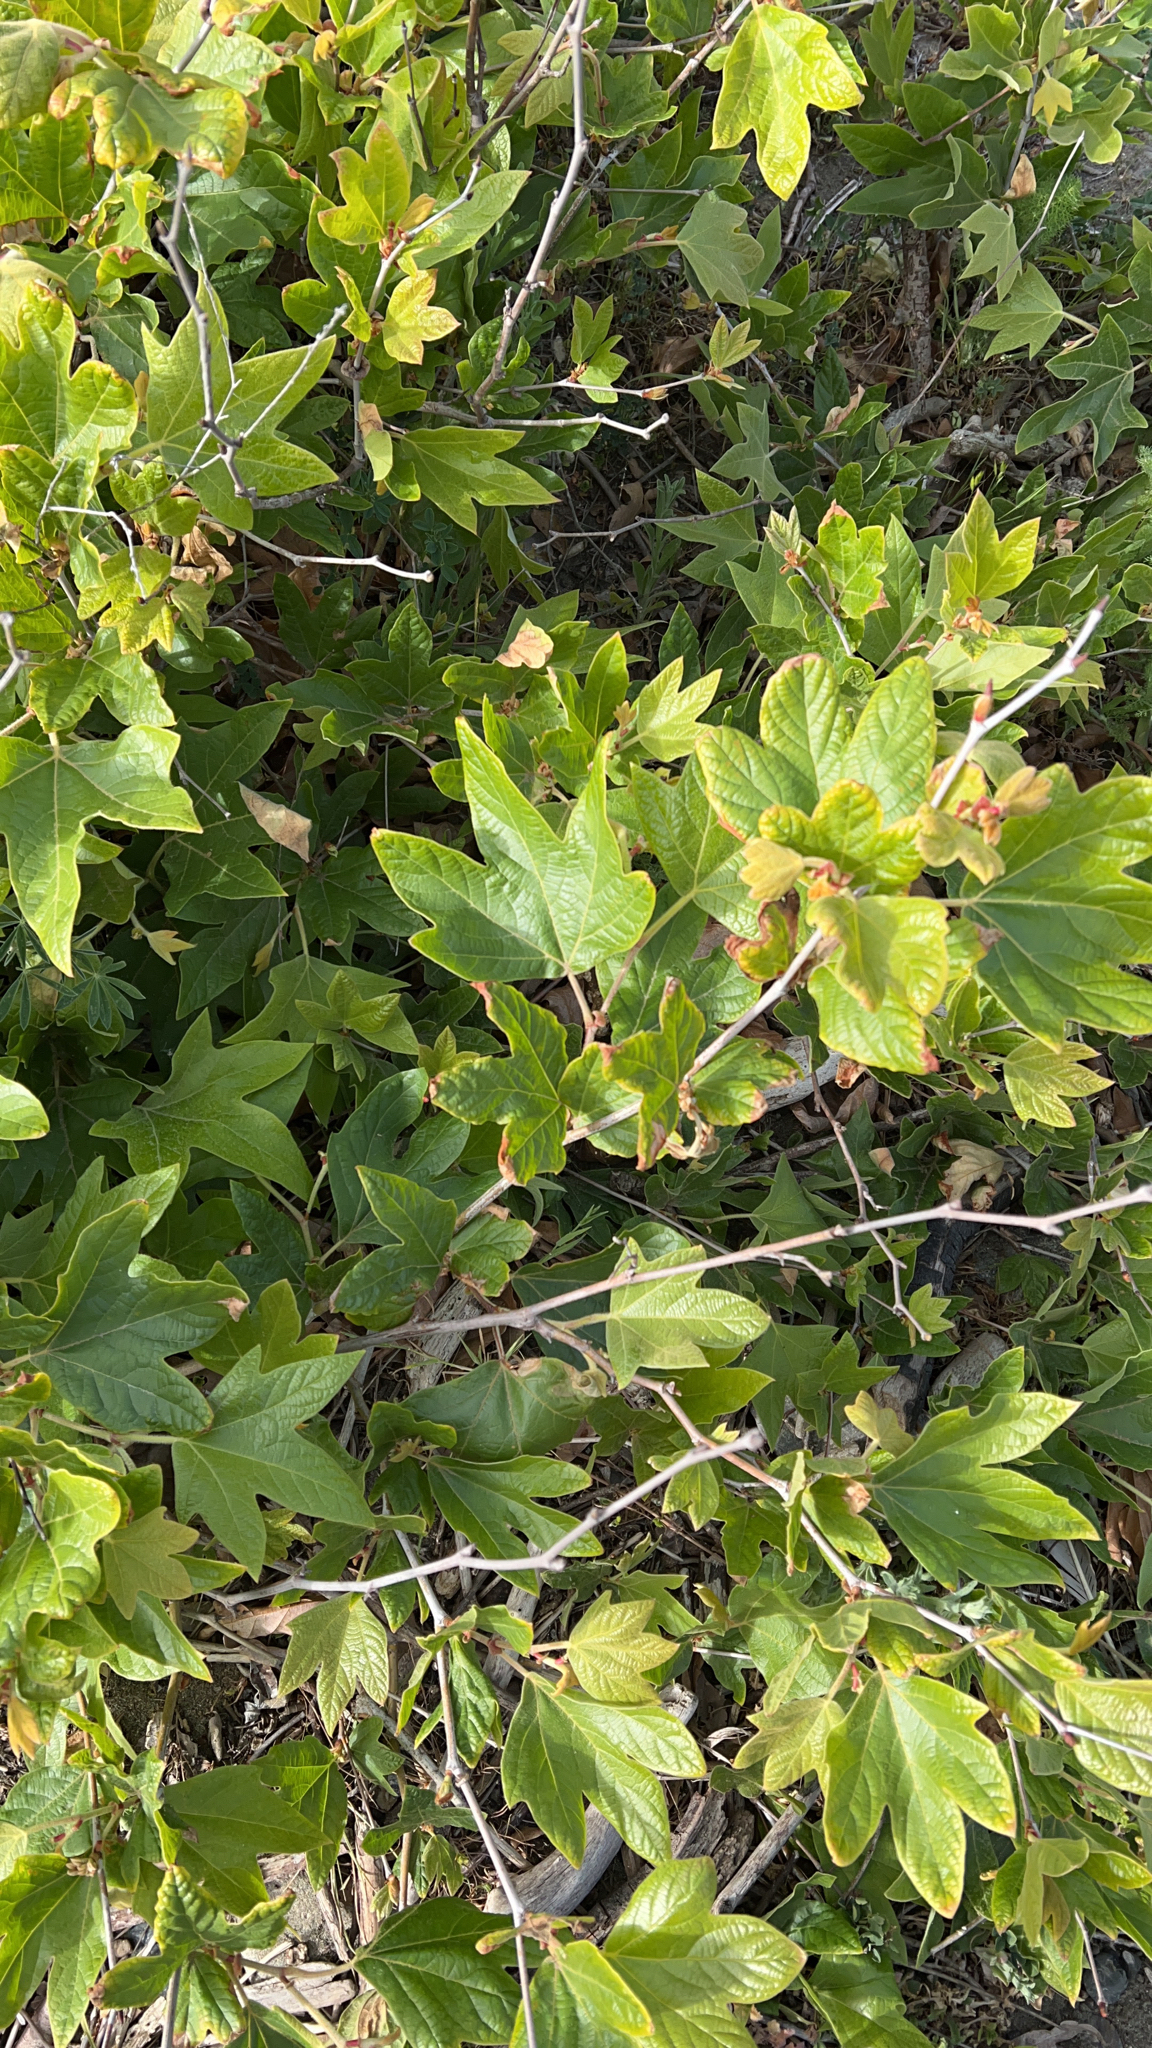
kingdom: Plantae
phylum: Tracheophyta
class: Magnoliopsida
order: Proteales
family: Platanaceae
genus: Platanus
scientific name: Platanus racemosa
